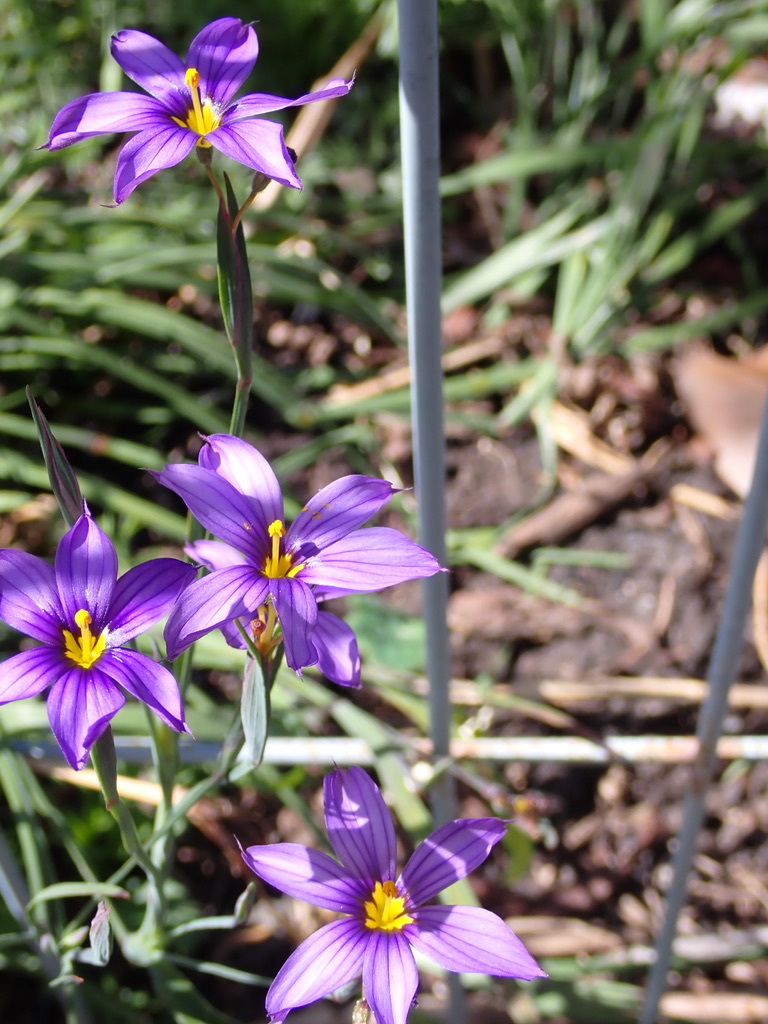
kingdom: Plantae
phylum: Tracheophyta
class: Liliopsida
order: Asparagales
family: Iridaceae
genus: Sisyrinchium
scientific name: Sisyrinchium bellum
